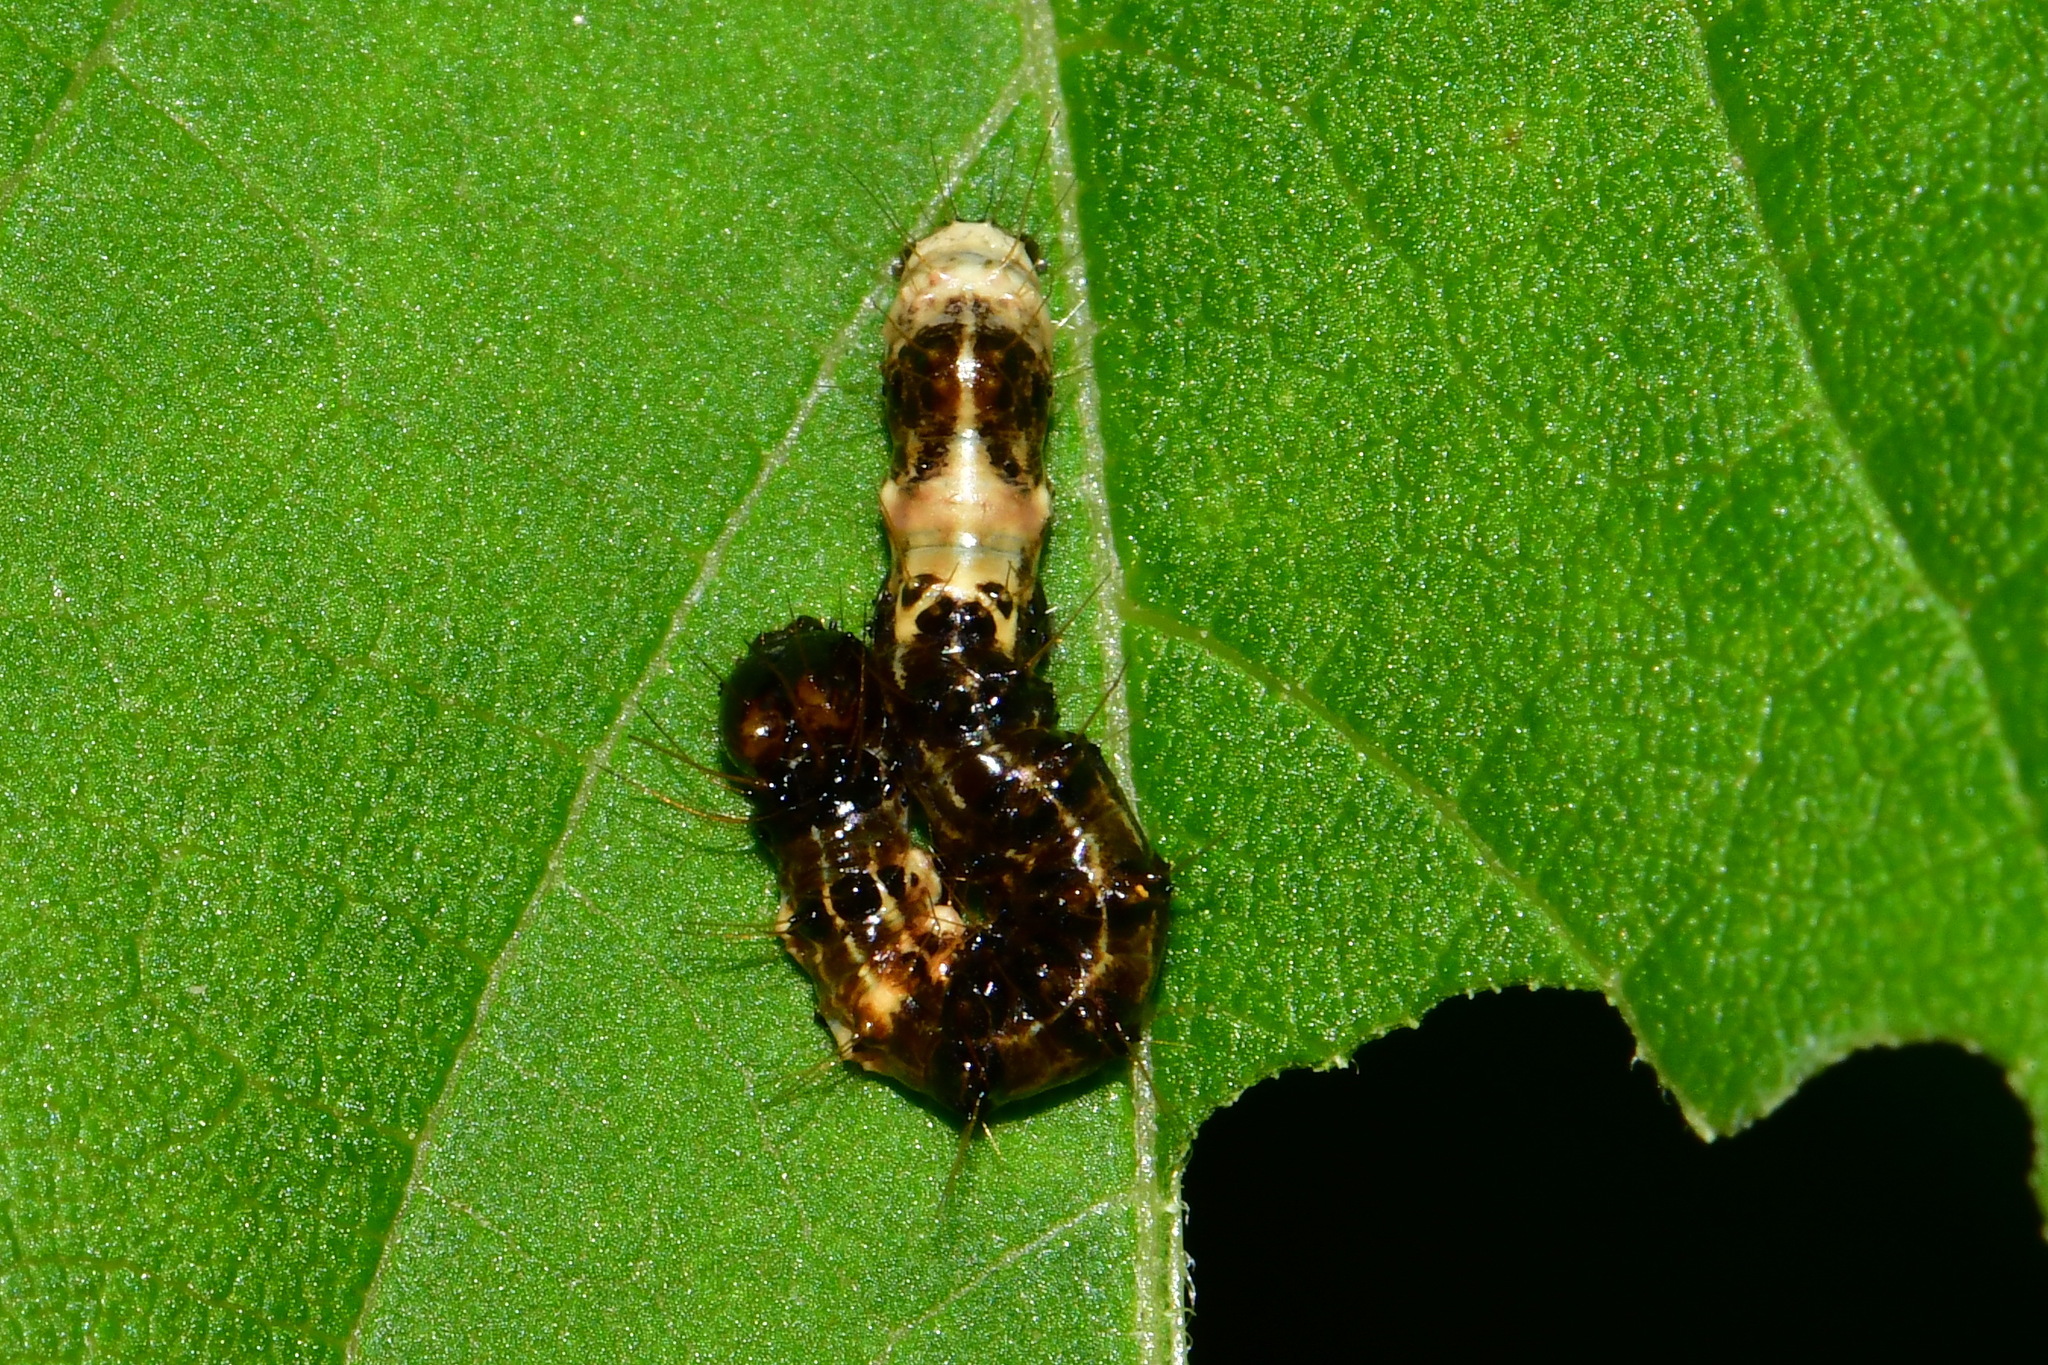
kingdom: Animalia
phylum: Arthropoda
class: Insecta
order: Lepidoptera
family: Noctuidae
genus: Acronicta
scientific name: Acronicta alni
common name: Alder moth
